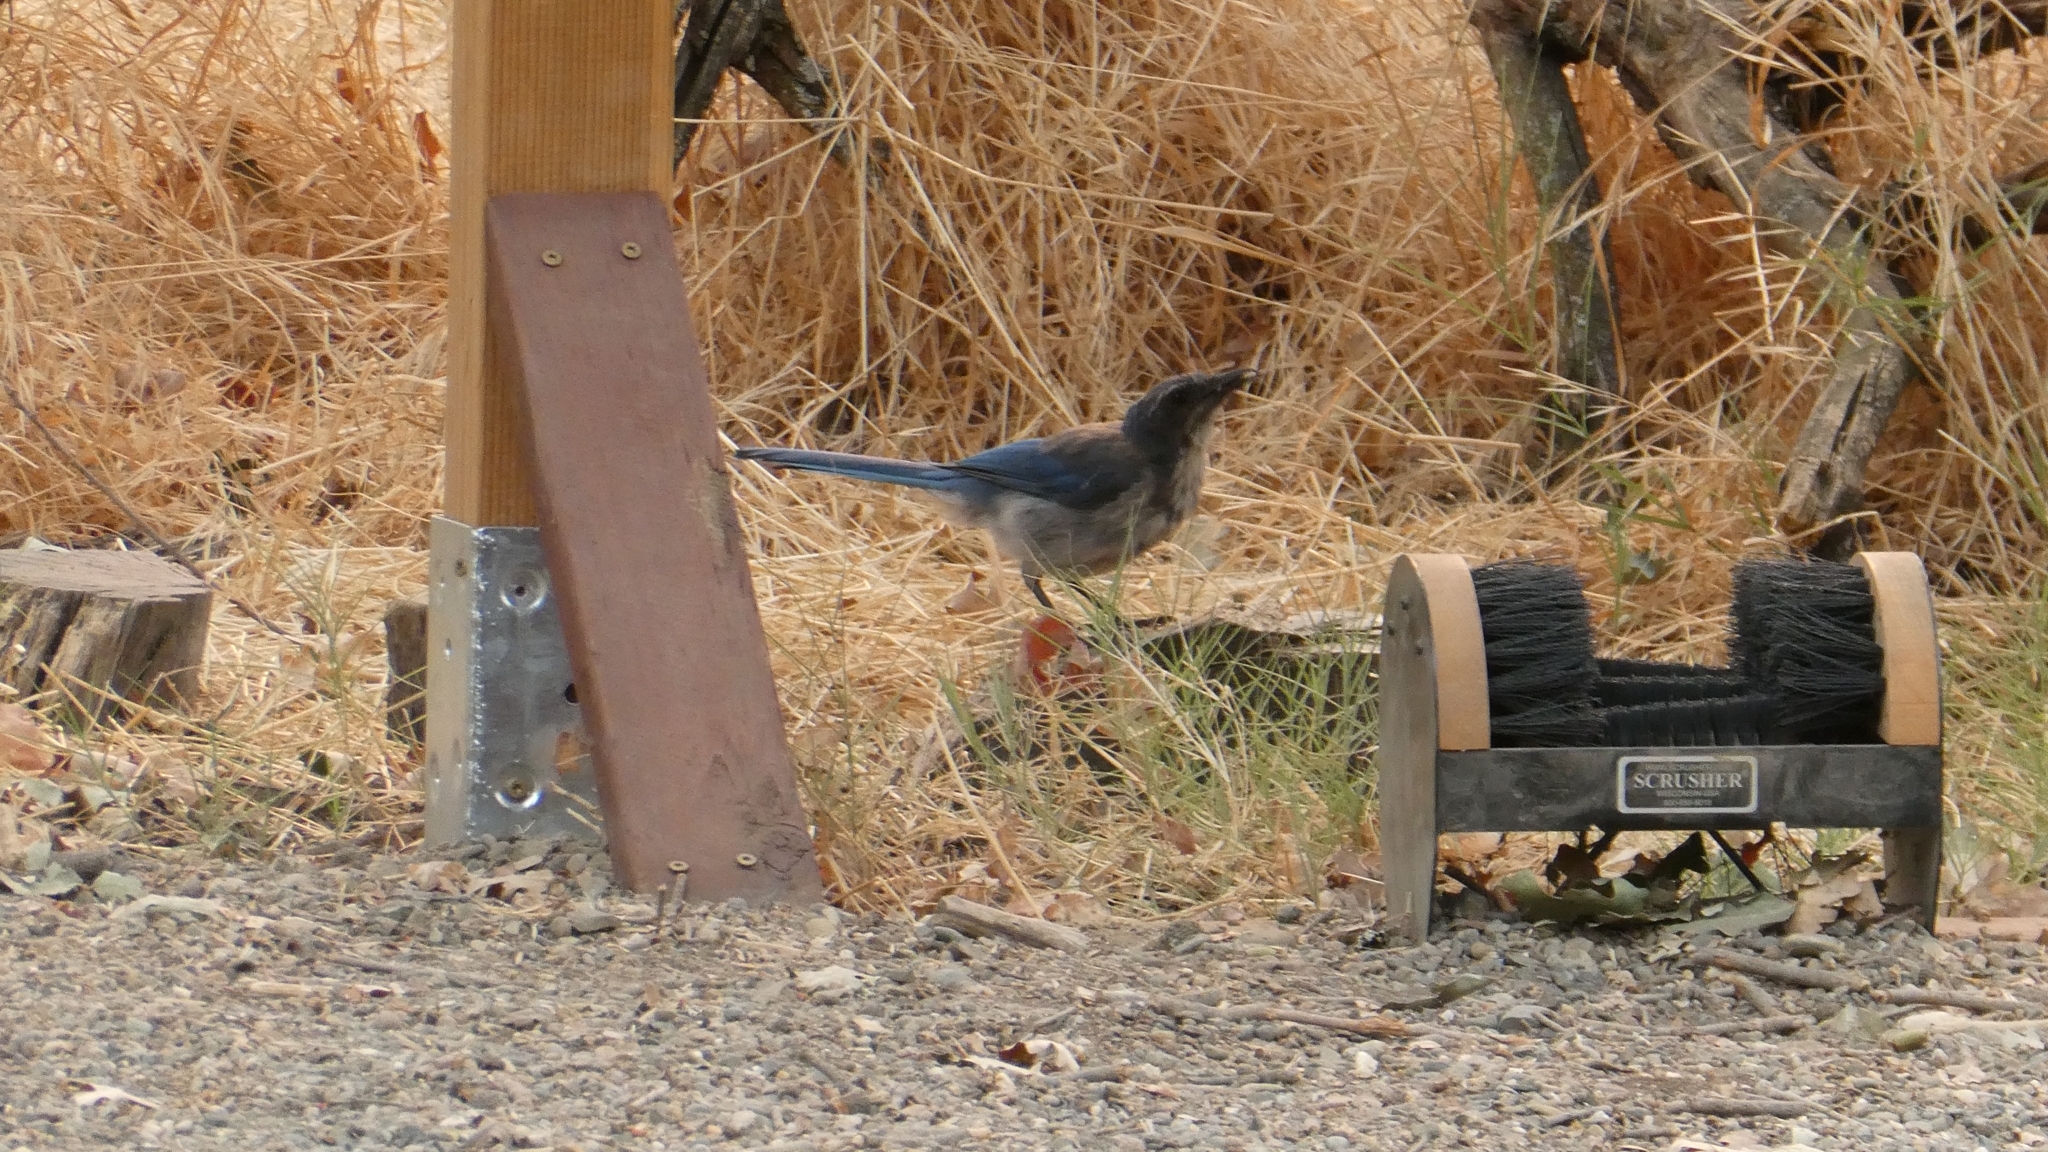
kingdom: Animalia
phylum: Chordata
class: Aves
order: Passeriformes
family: Corvidae
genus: Aphelocoma
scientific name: Aphelocoma californica
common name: California scrub-jay
